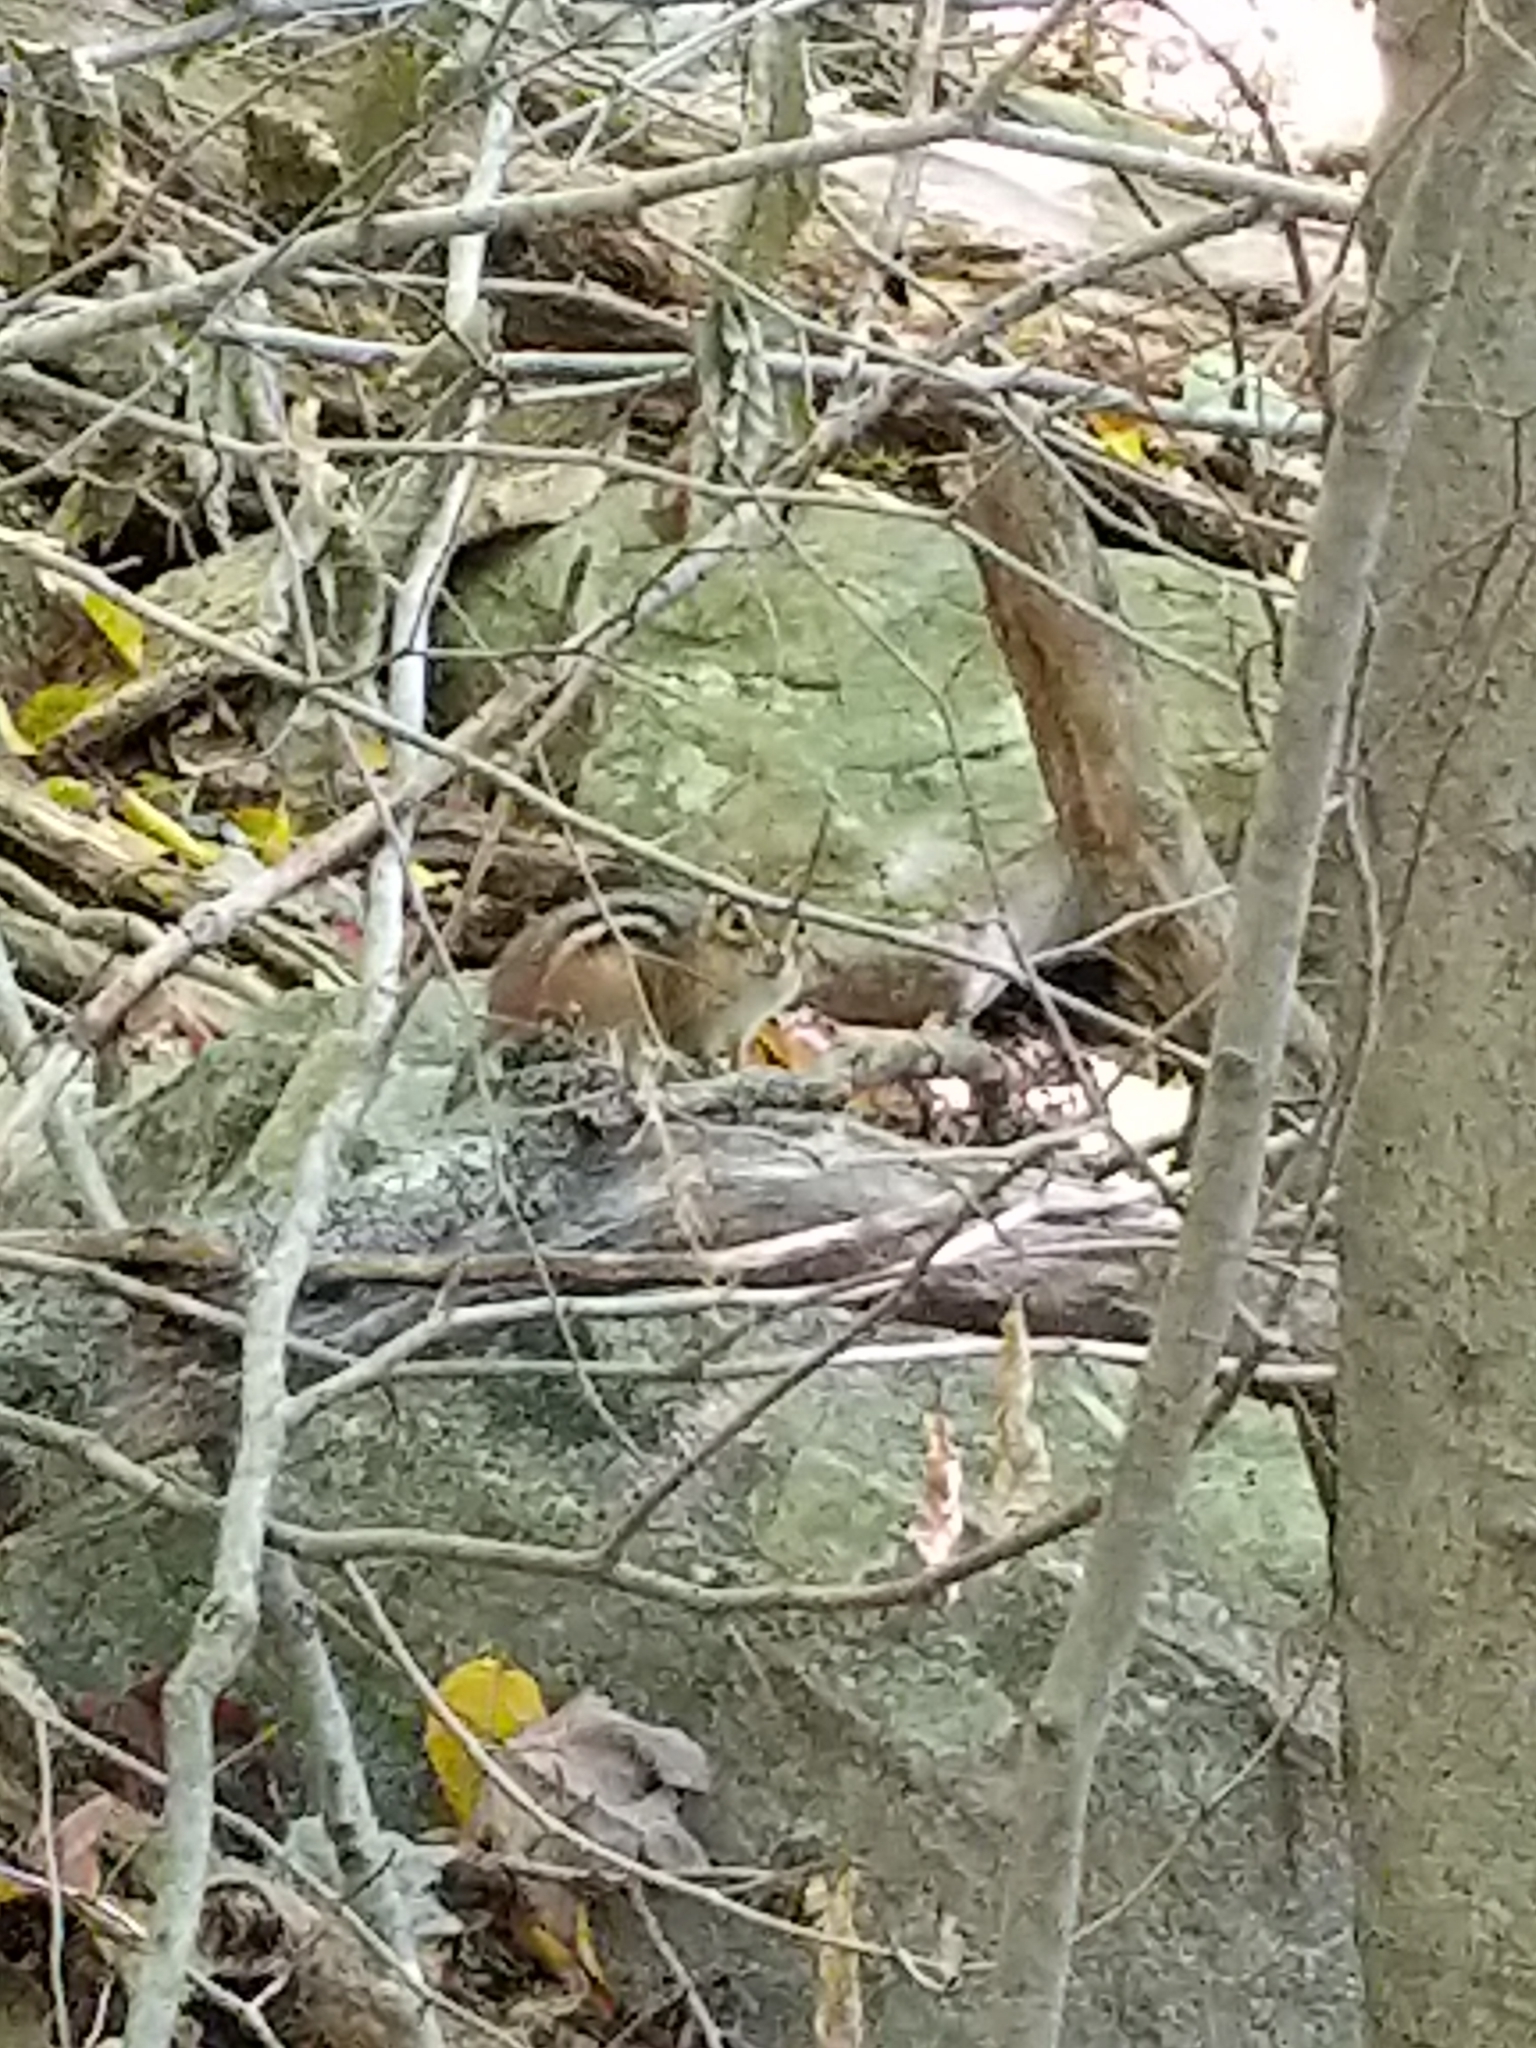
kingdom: Animalia
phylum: Chordata
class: Mammalia
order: Rodentia
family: Sciuridae
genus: Tamias
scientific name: Tamias striatus
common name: Eastern chipmunk
